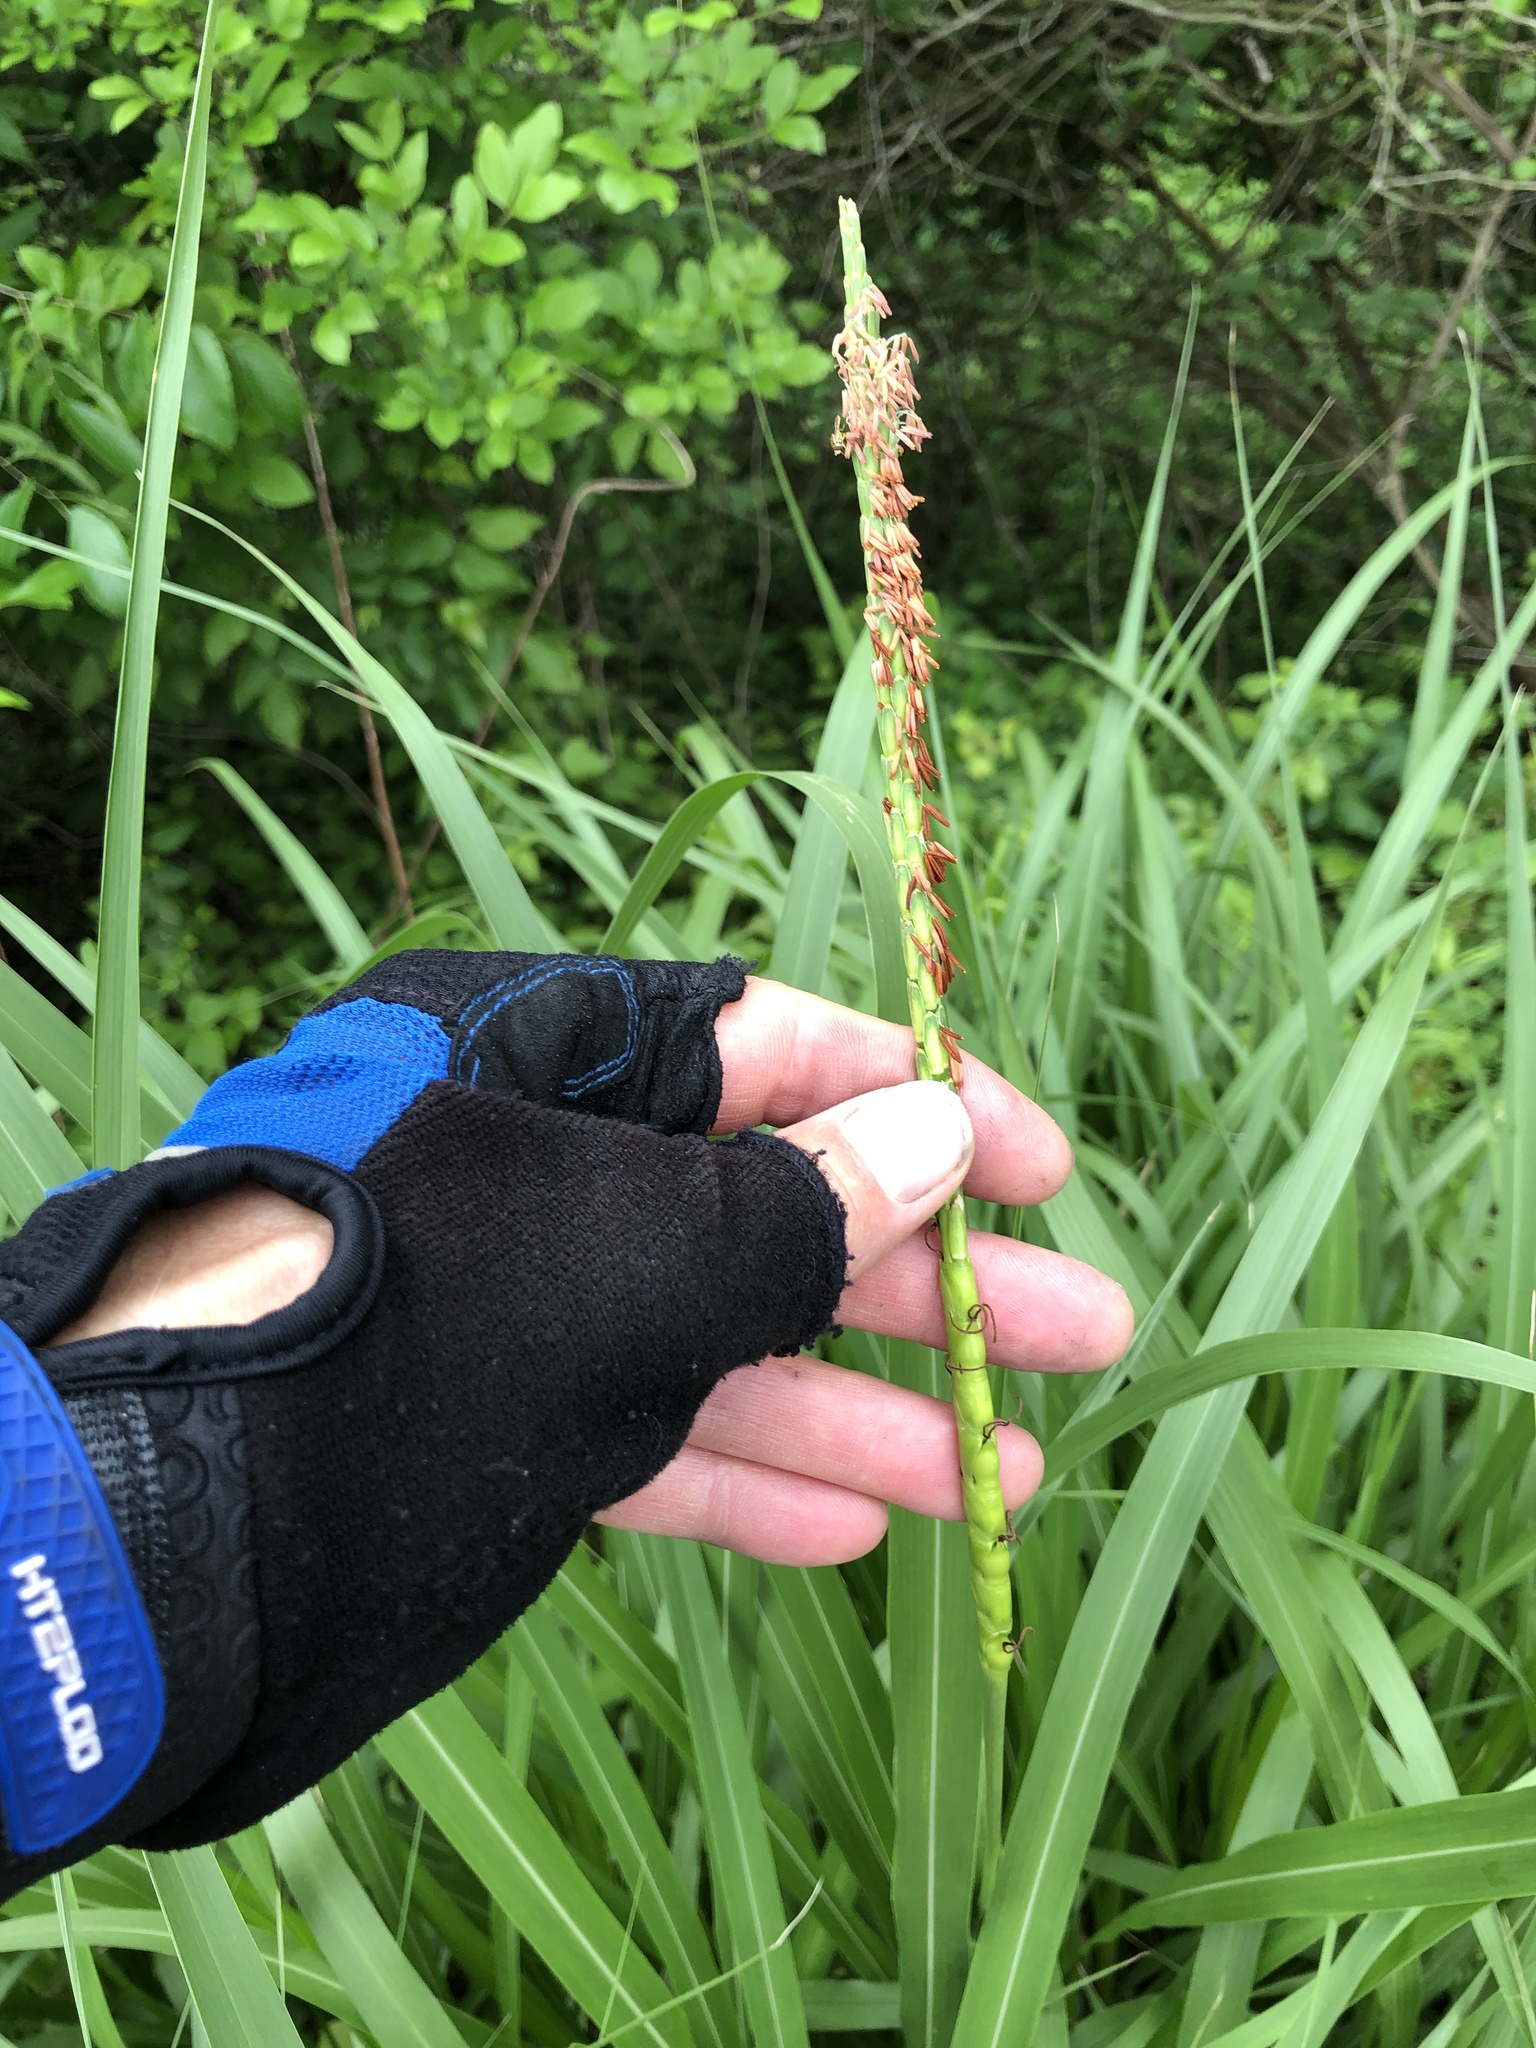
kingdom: Plantae
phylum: Tracheophyta
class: Liliopsida
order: Poales
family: Poaceae
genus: Tripsacum
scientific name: Tripsacum dactyloides
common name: Buffalo-grass
